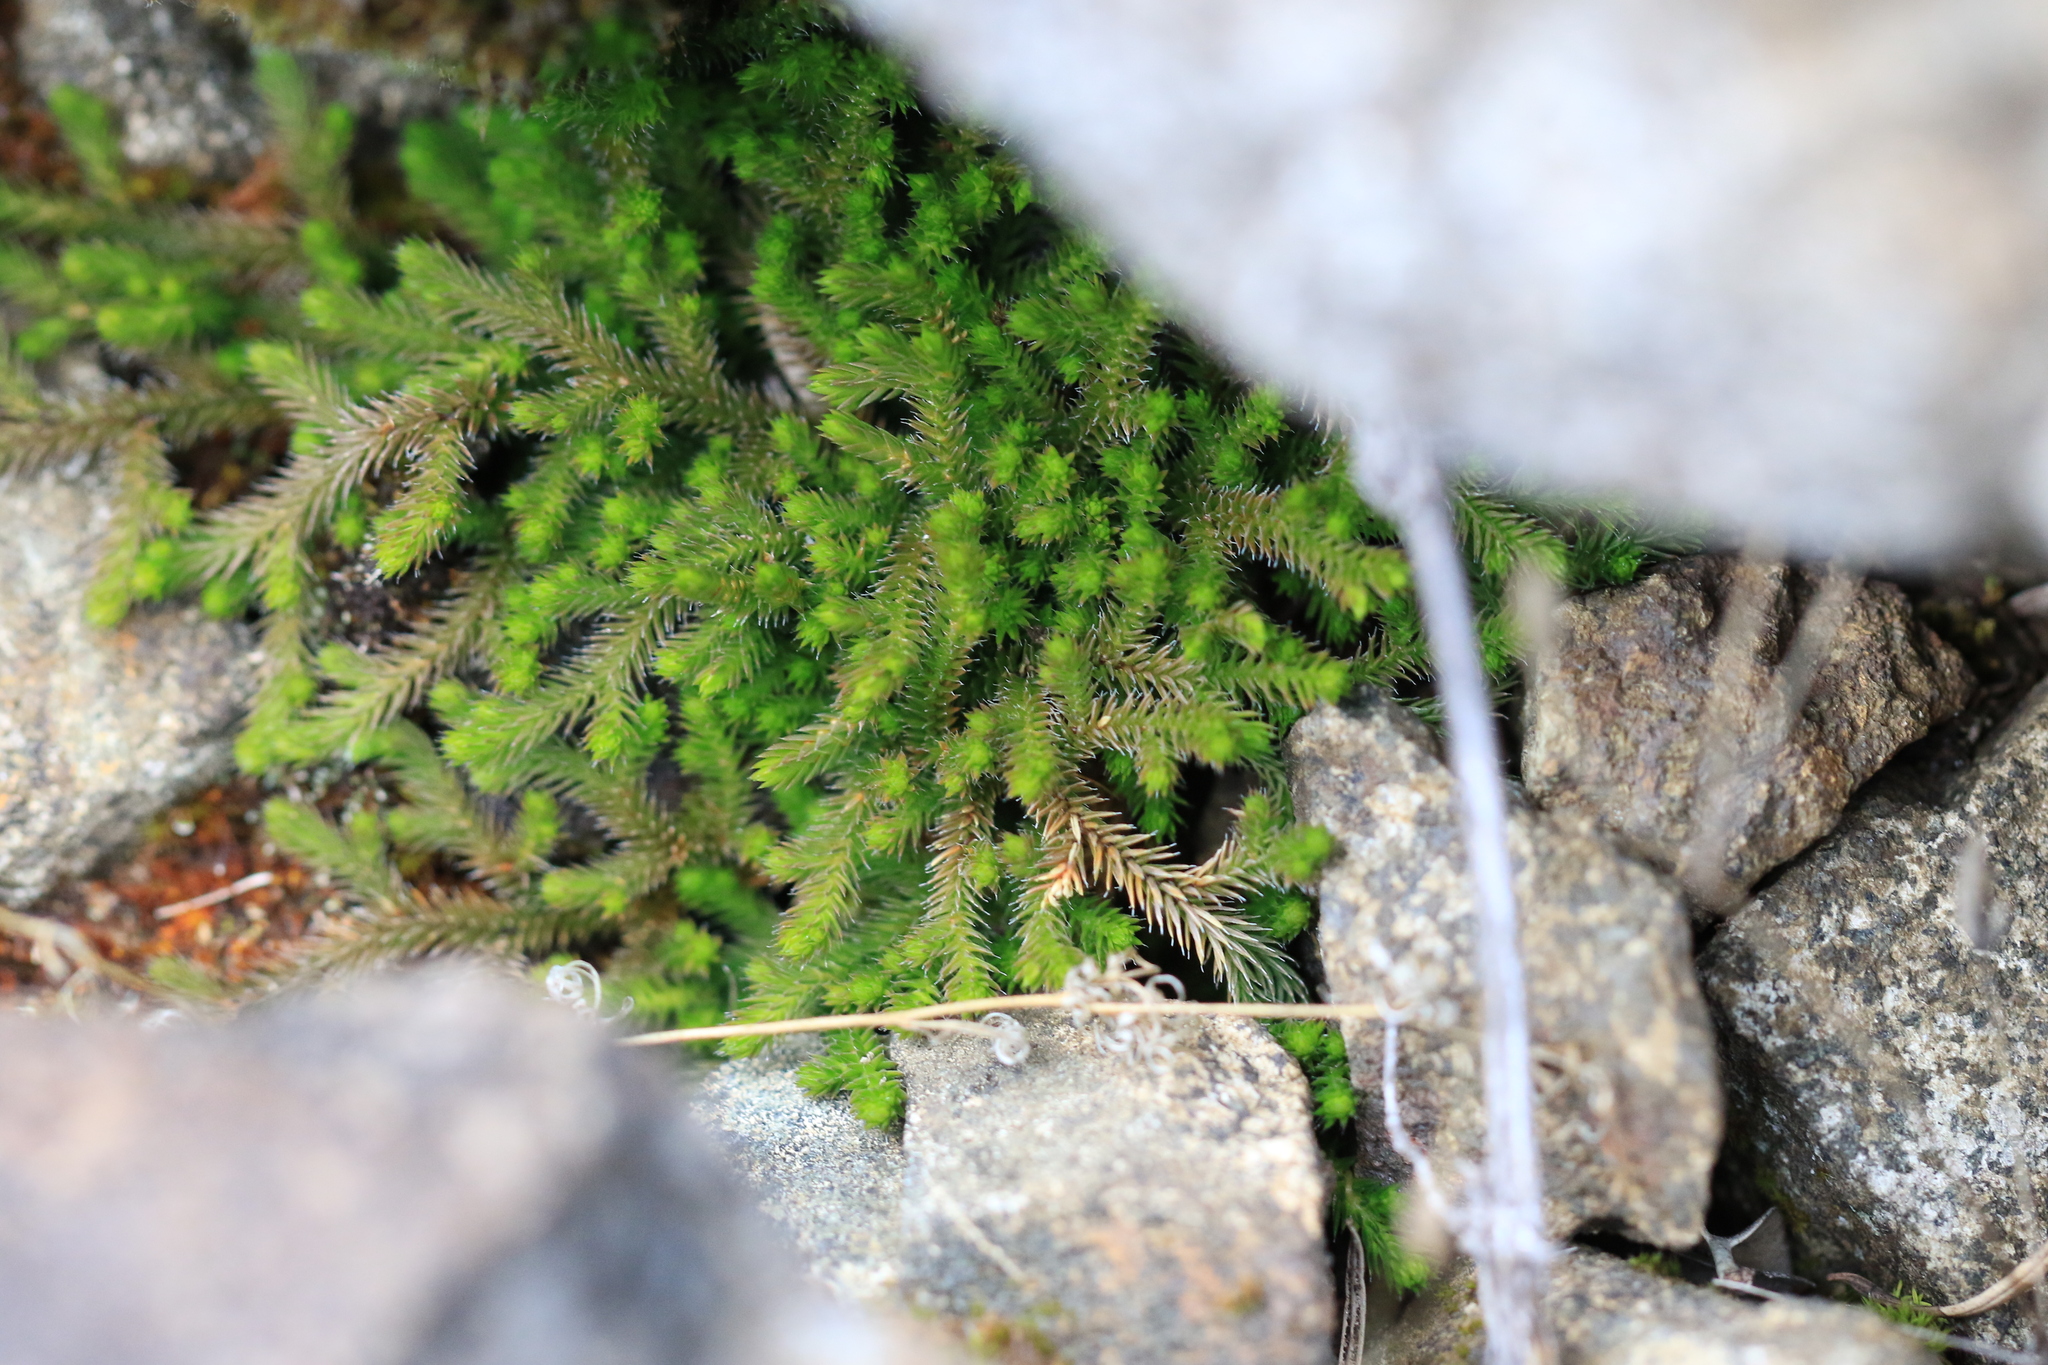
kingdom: Plantae
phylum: Tracheophyta
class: Lycopodiopsida
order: Selaginellales
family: Selaginellaceae
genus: Selaginella
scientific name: Selaginella wallacei
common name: Wallace's selaginella
